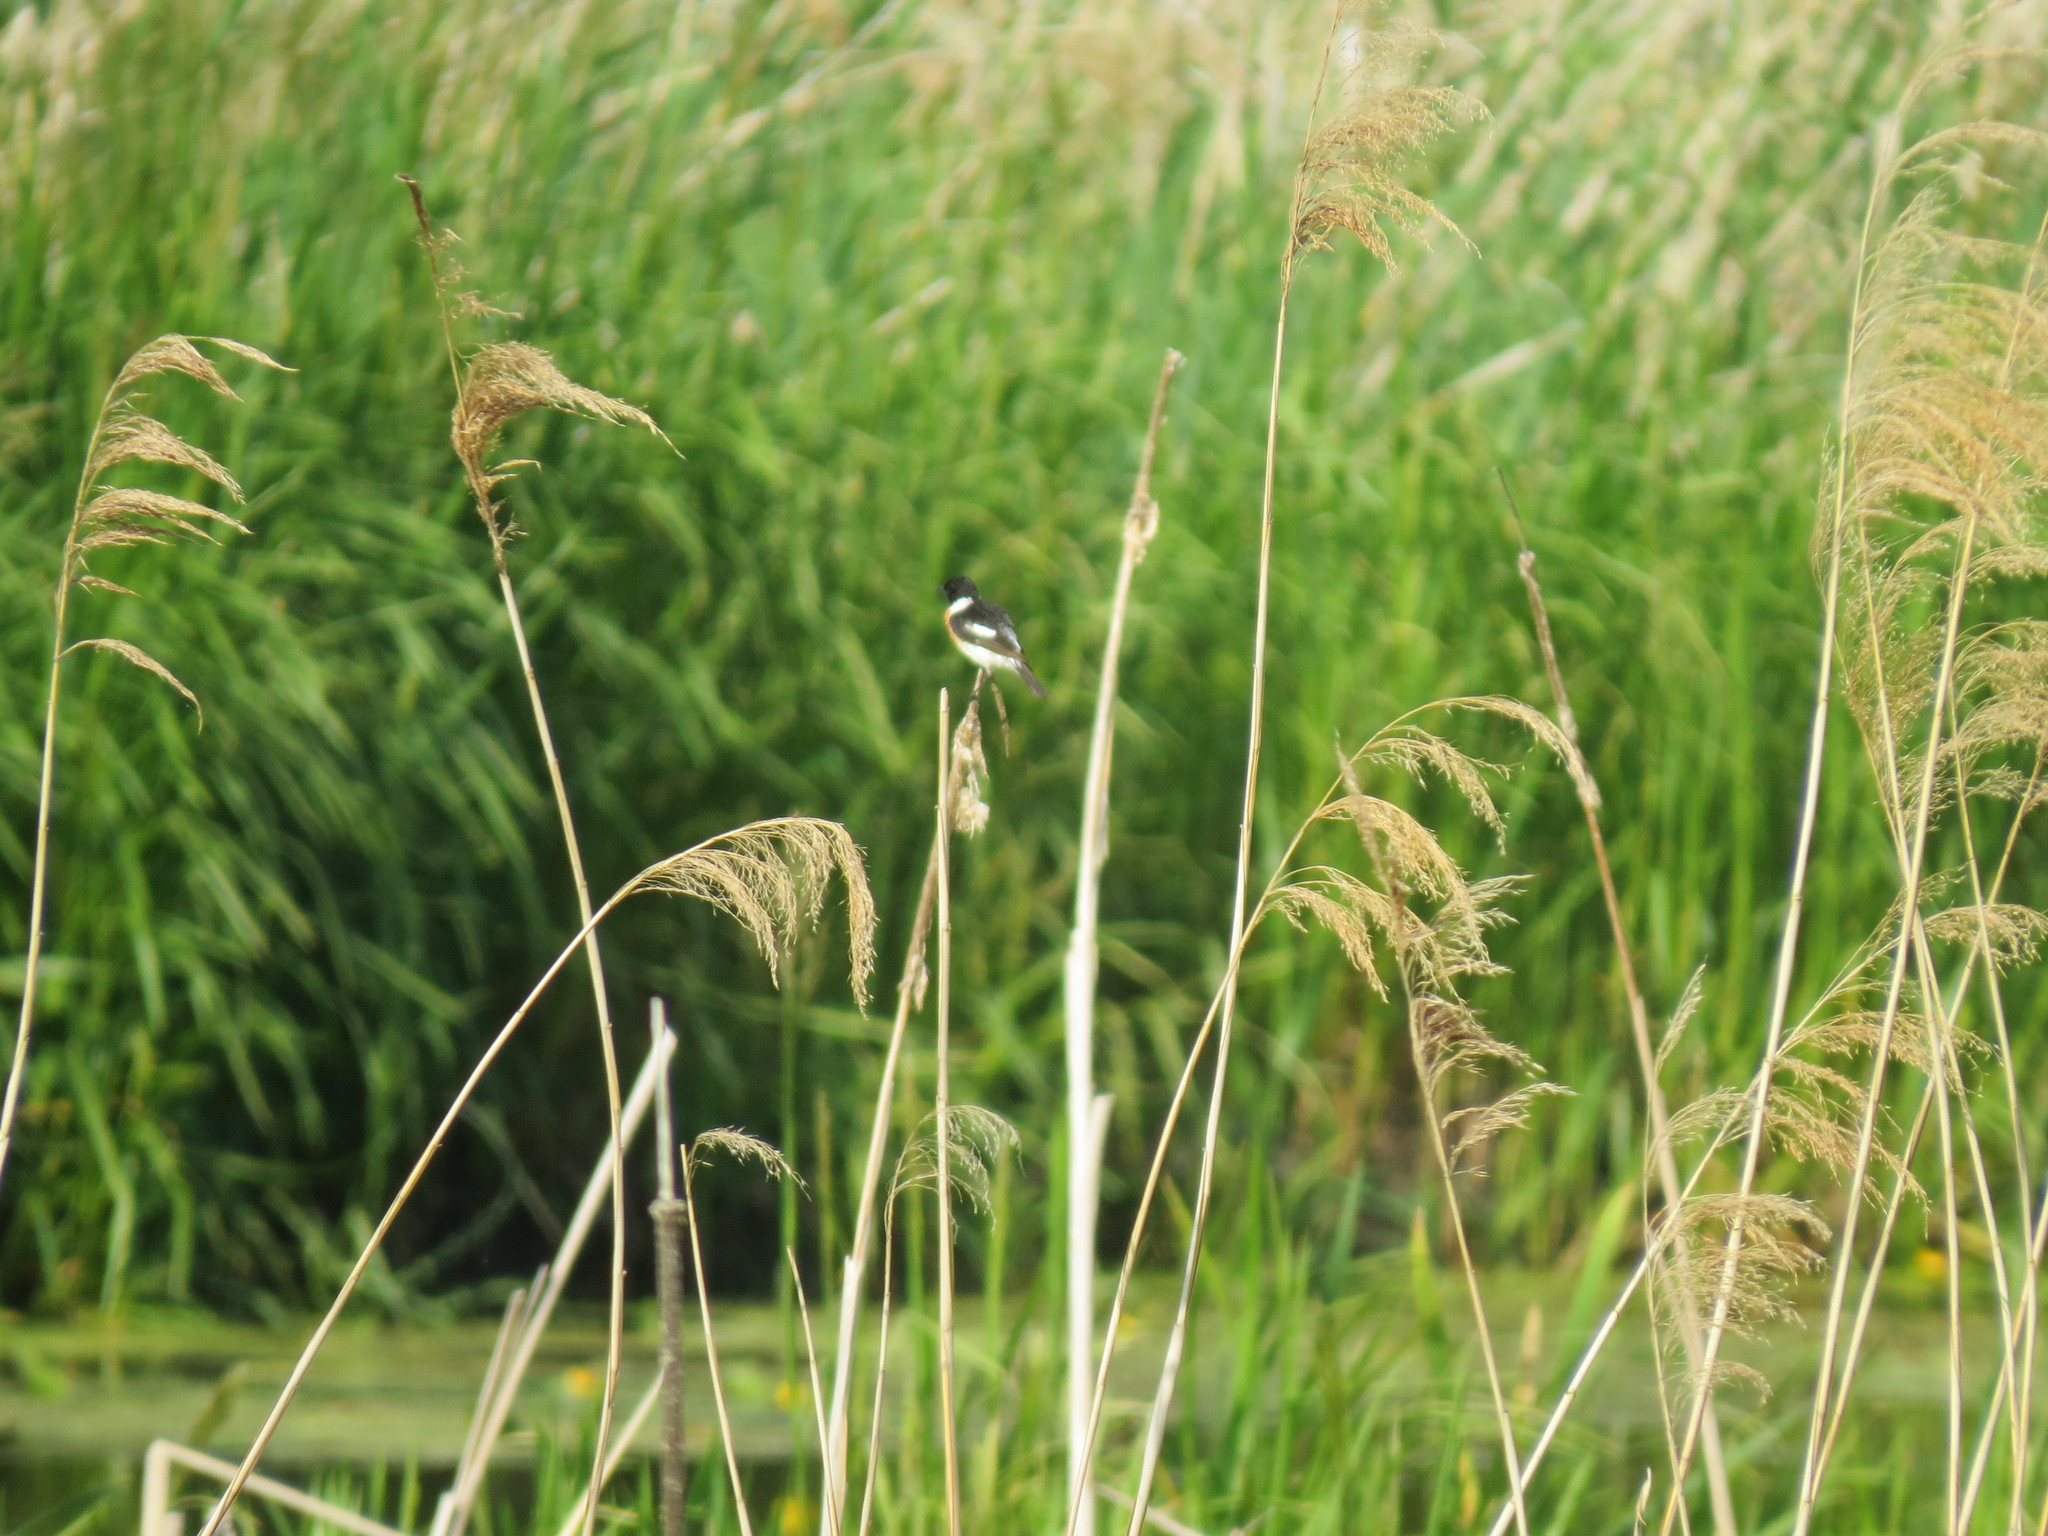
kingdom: Animalia
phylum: Chordata
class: Aves
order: Passeriformes
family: Muscicapidae
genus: Saxicola
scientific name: Saxicola maurus
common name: Siberian stonechat
